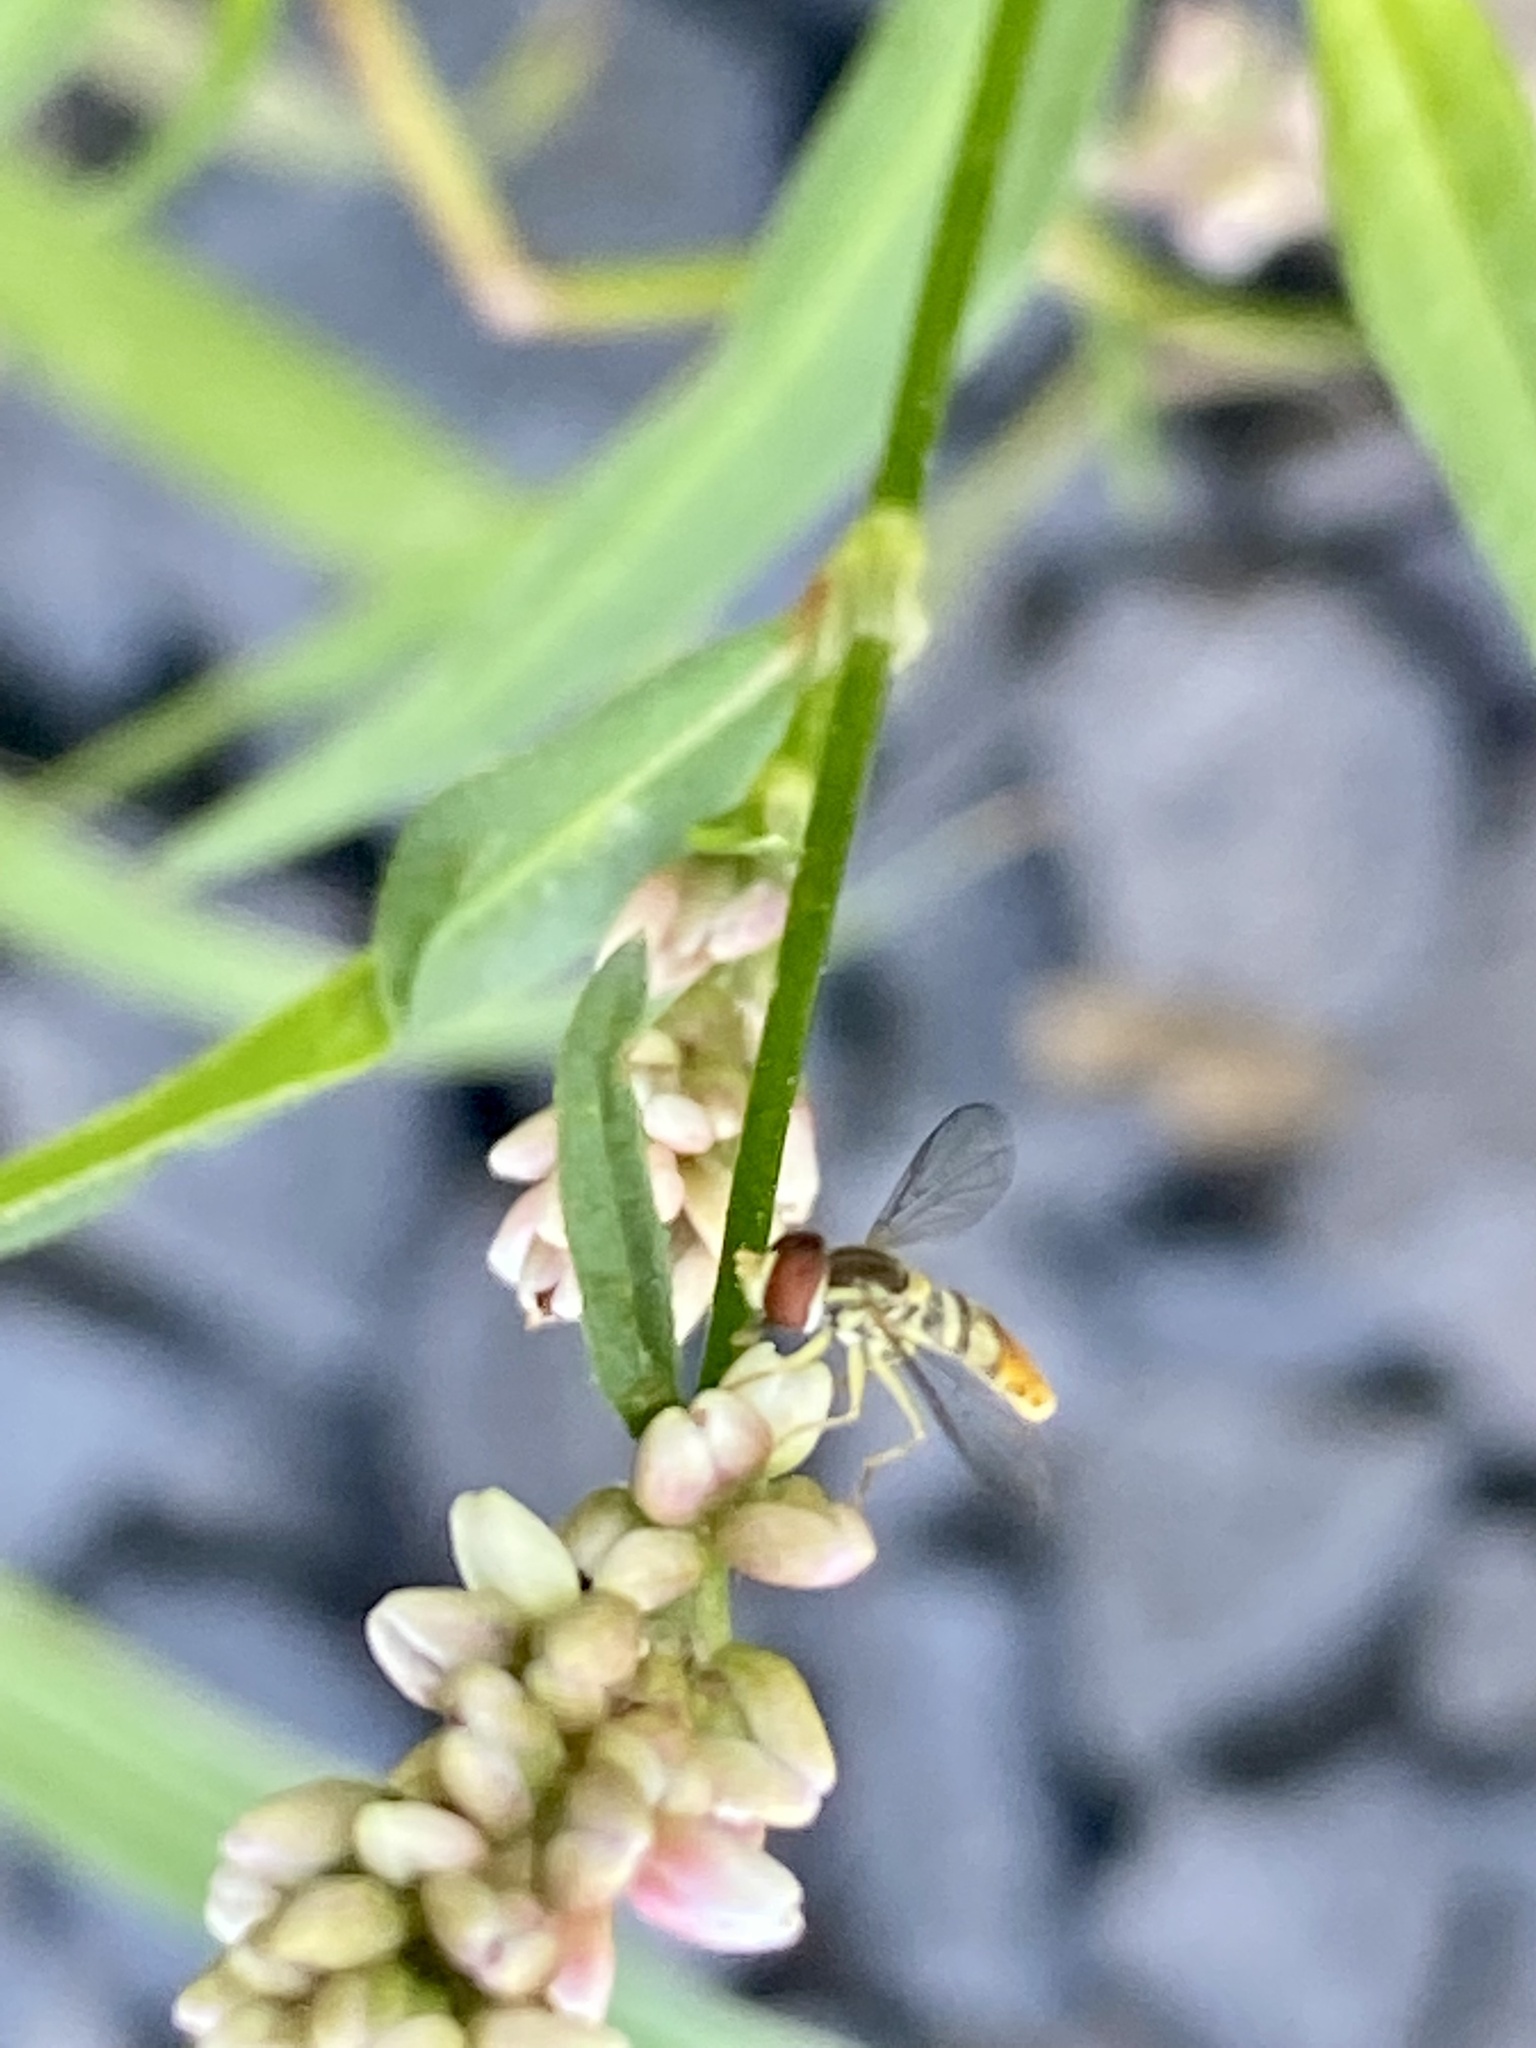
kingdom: Animalia
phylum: Arthropoda
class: Insecta
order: Diptera
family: Syrphidae
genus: Toxomerus
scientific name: Toxomerus marginatus
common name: Syrphid fly
